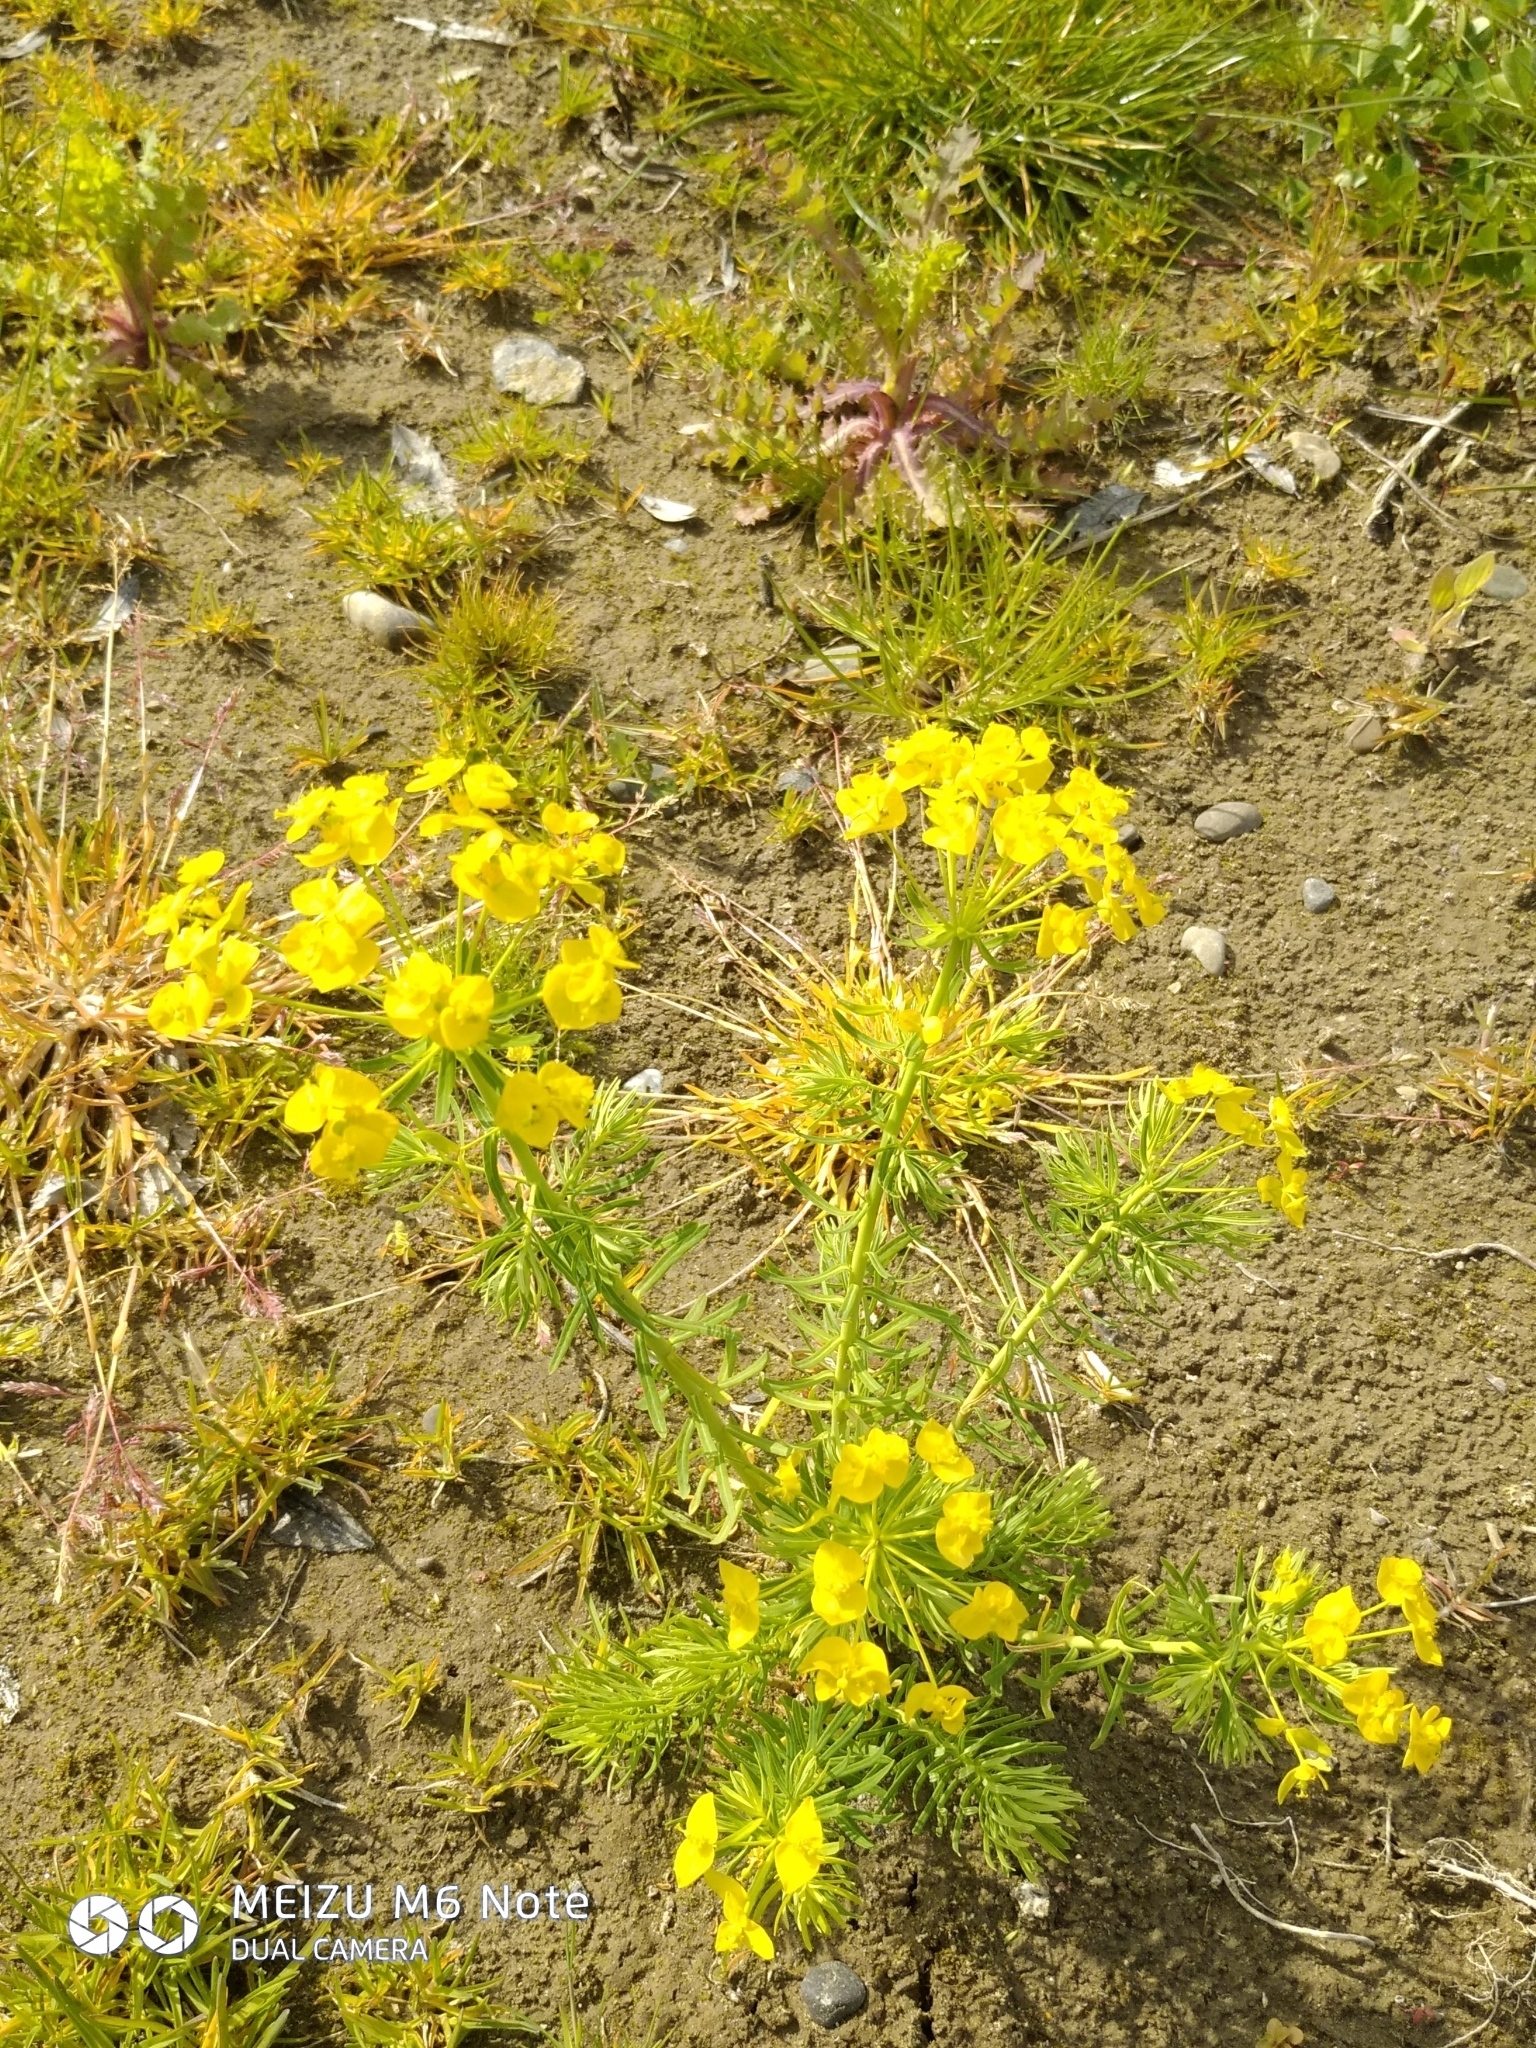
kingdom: Plantae
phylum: Tracheophyta
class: Magnoliopsida
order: Malpighiales
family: Euphorbiaceae
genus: Euphorbia
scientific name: Euphorbia cyparissias
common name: Cypress spurge
